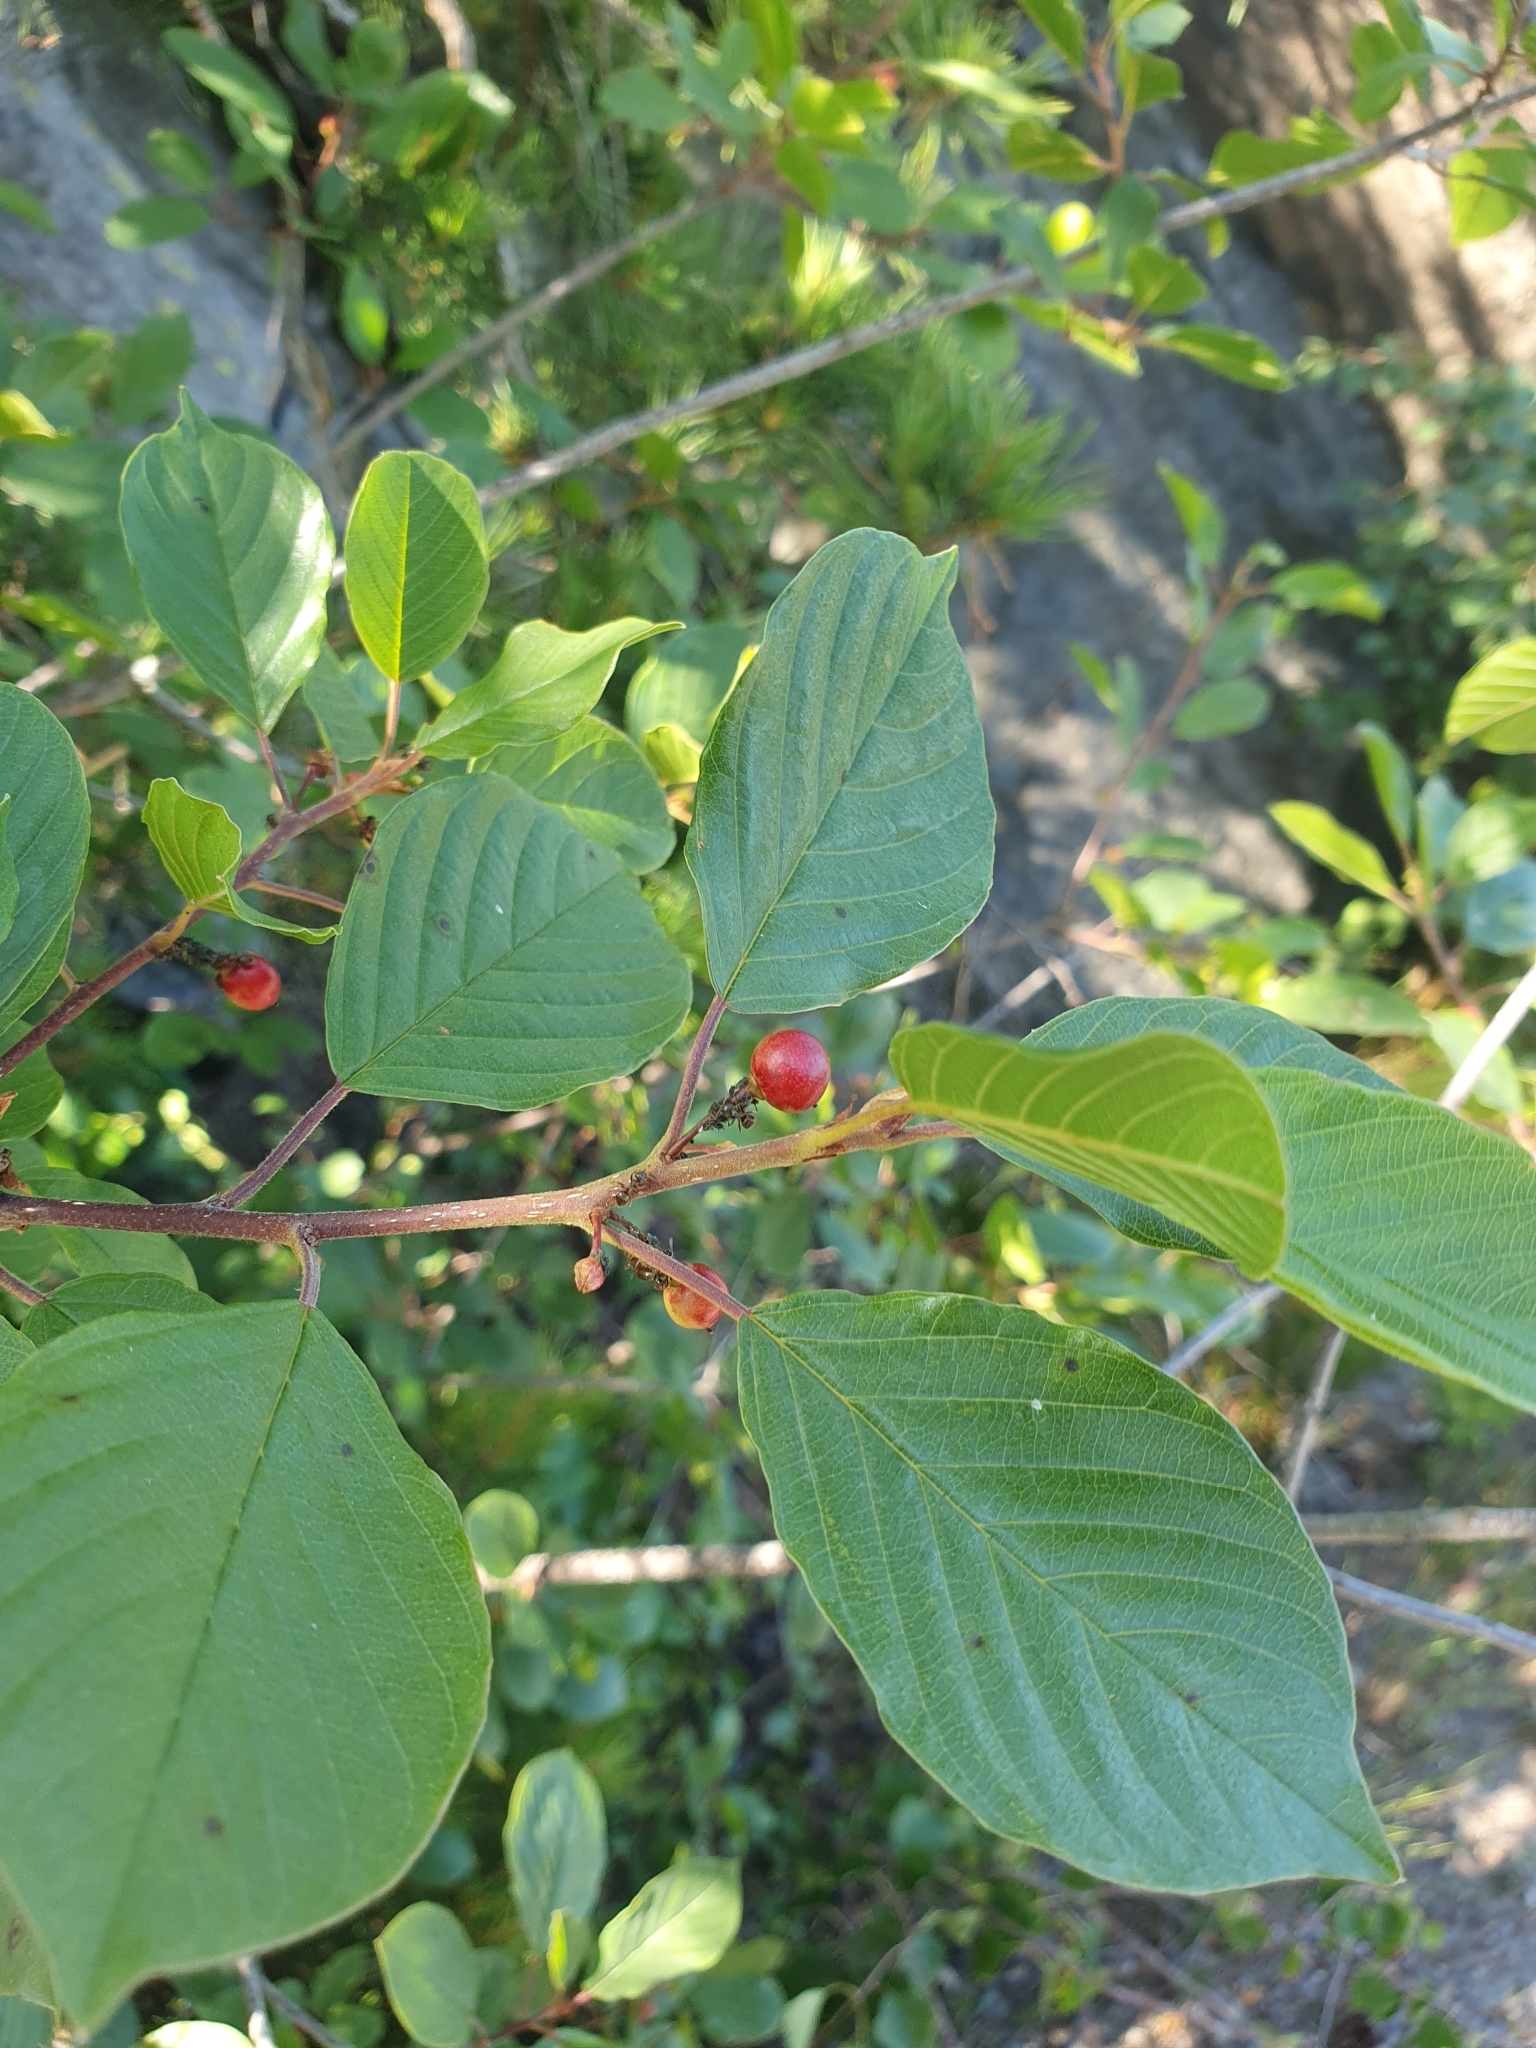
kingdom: Plantae
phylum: Tracheophyta
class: Magnoliopsida
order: Rosales
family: Rhamnaceae
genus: Frangula
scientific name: Frangula alnus
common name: Alder buckthorn
